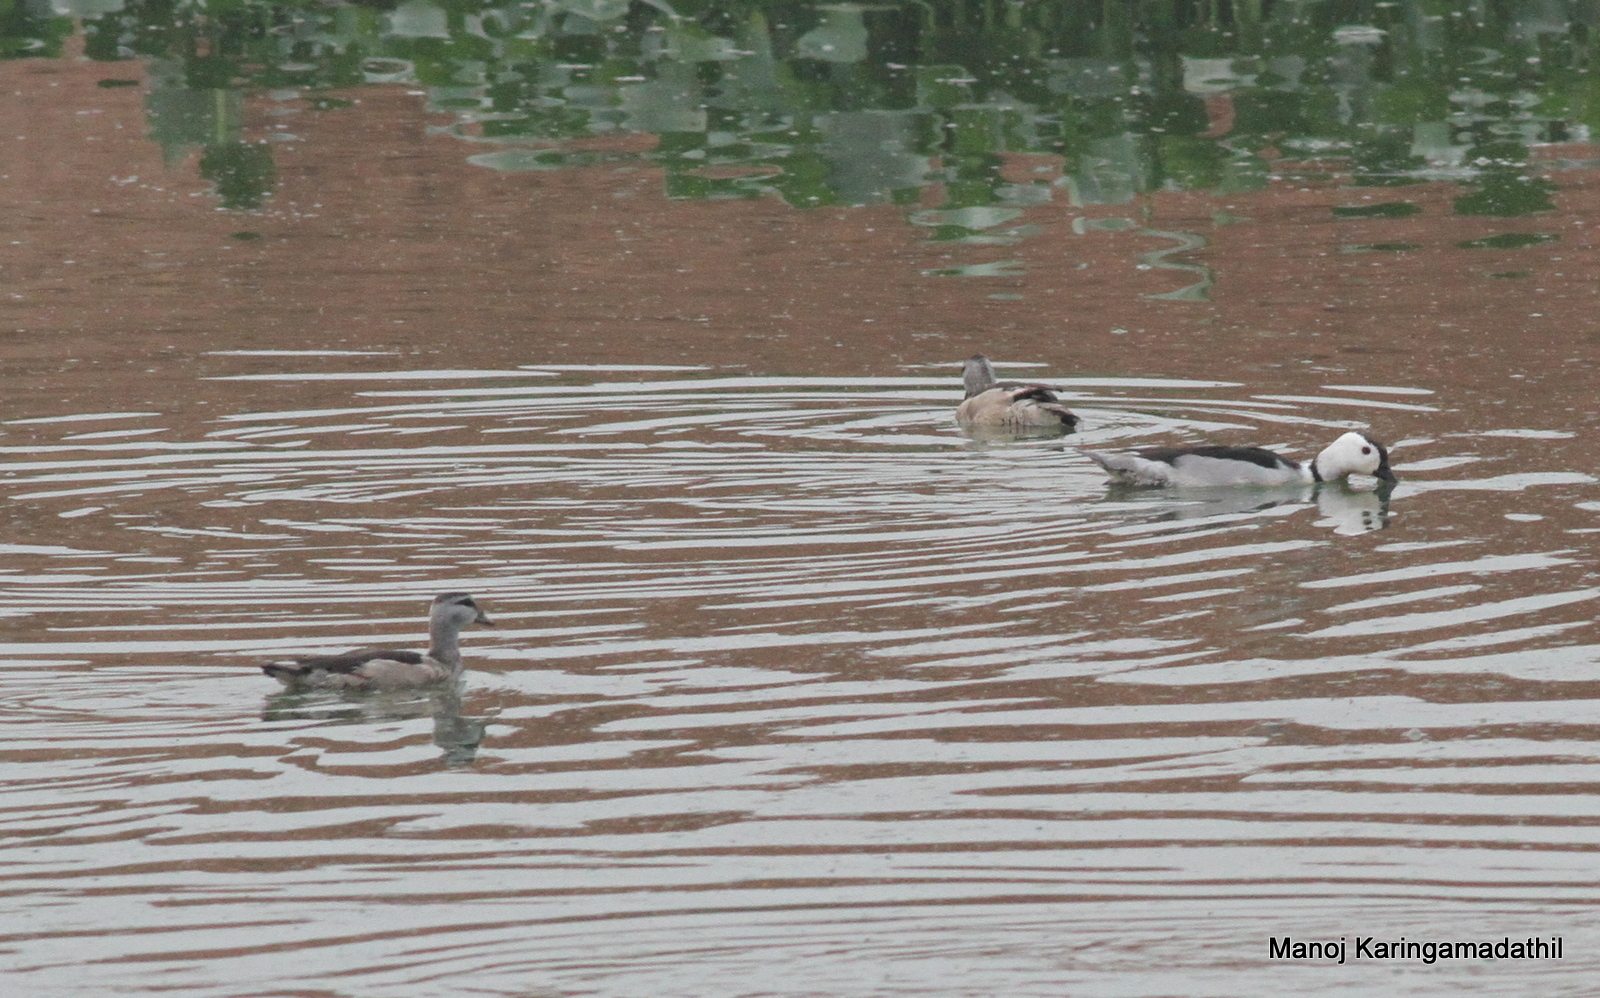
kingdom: Animalia
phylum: Chordata
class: Aves
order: Anseriformes
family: Anatidae
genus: Nettapus
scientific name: Nettapus coromandelianus
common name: Cotton pygmy-goose
